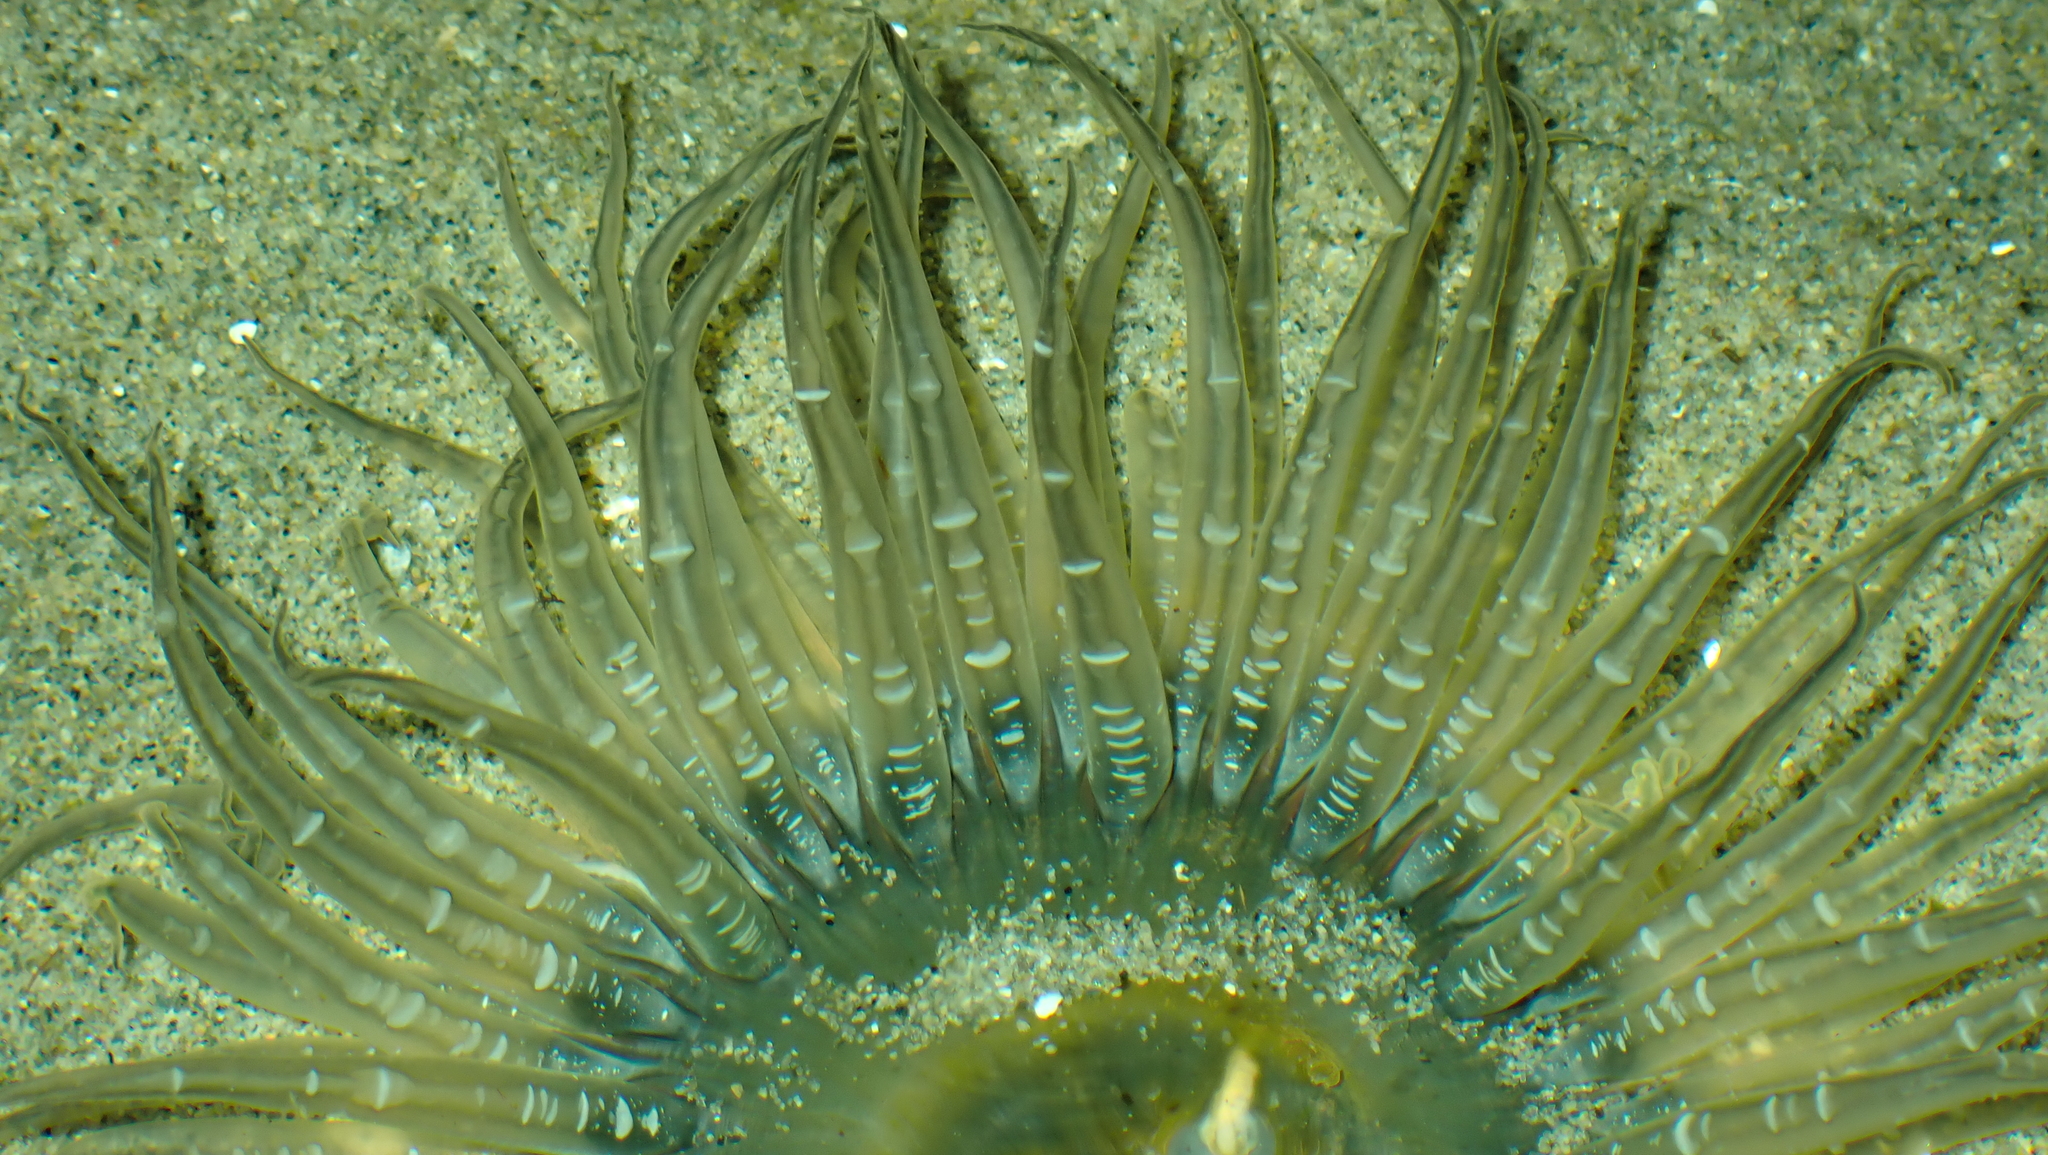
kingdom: Animalia
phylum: Cnidaria
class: Anthozoa
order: Actiniaria
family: Actiniidae
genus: Anthopleura
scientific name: Anthopleura artemisia
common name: Buried sea anemone
